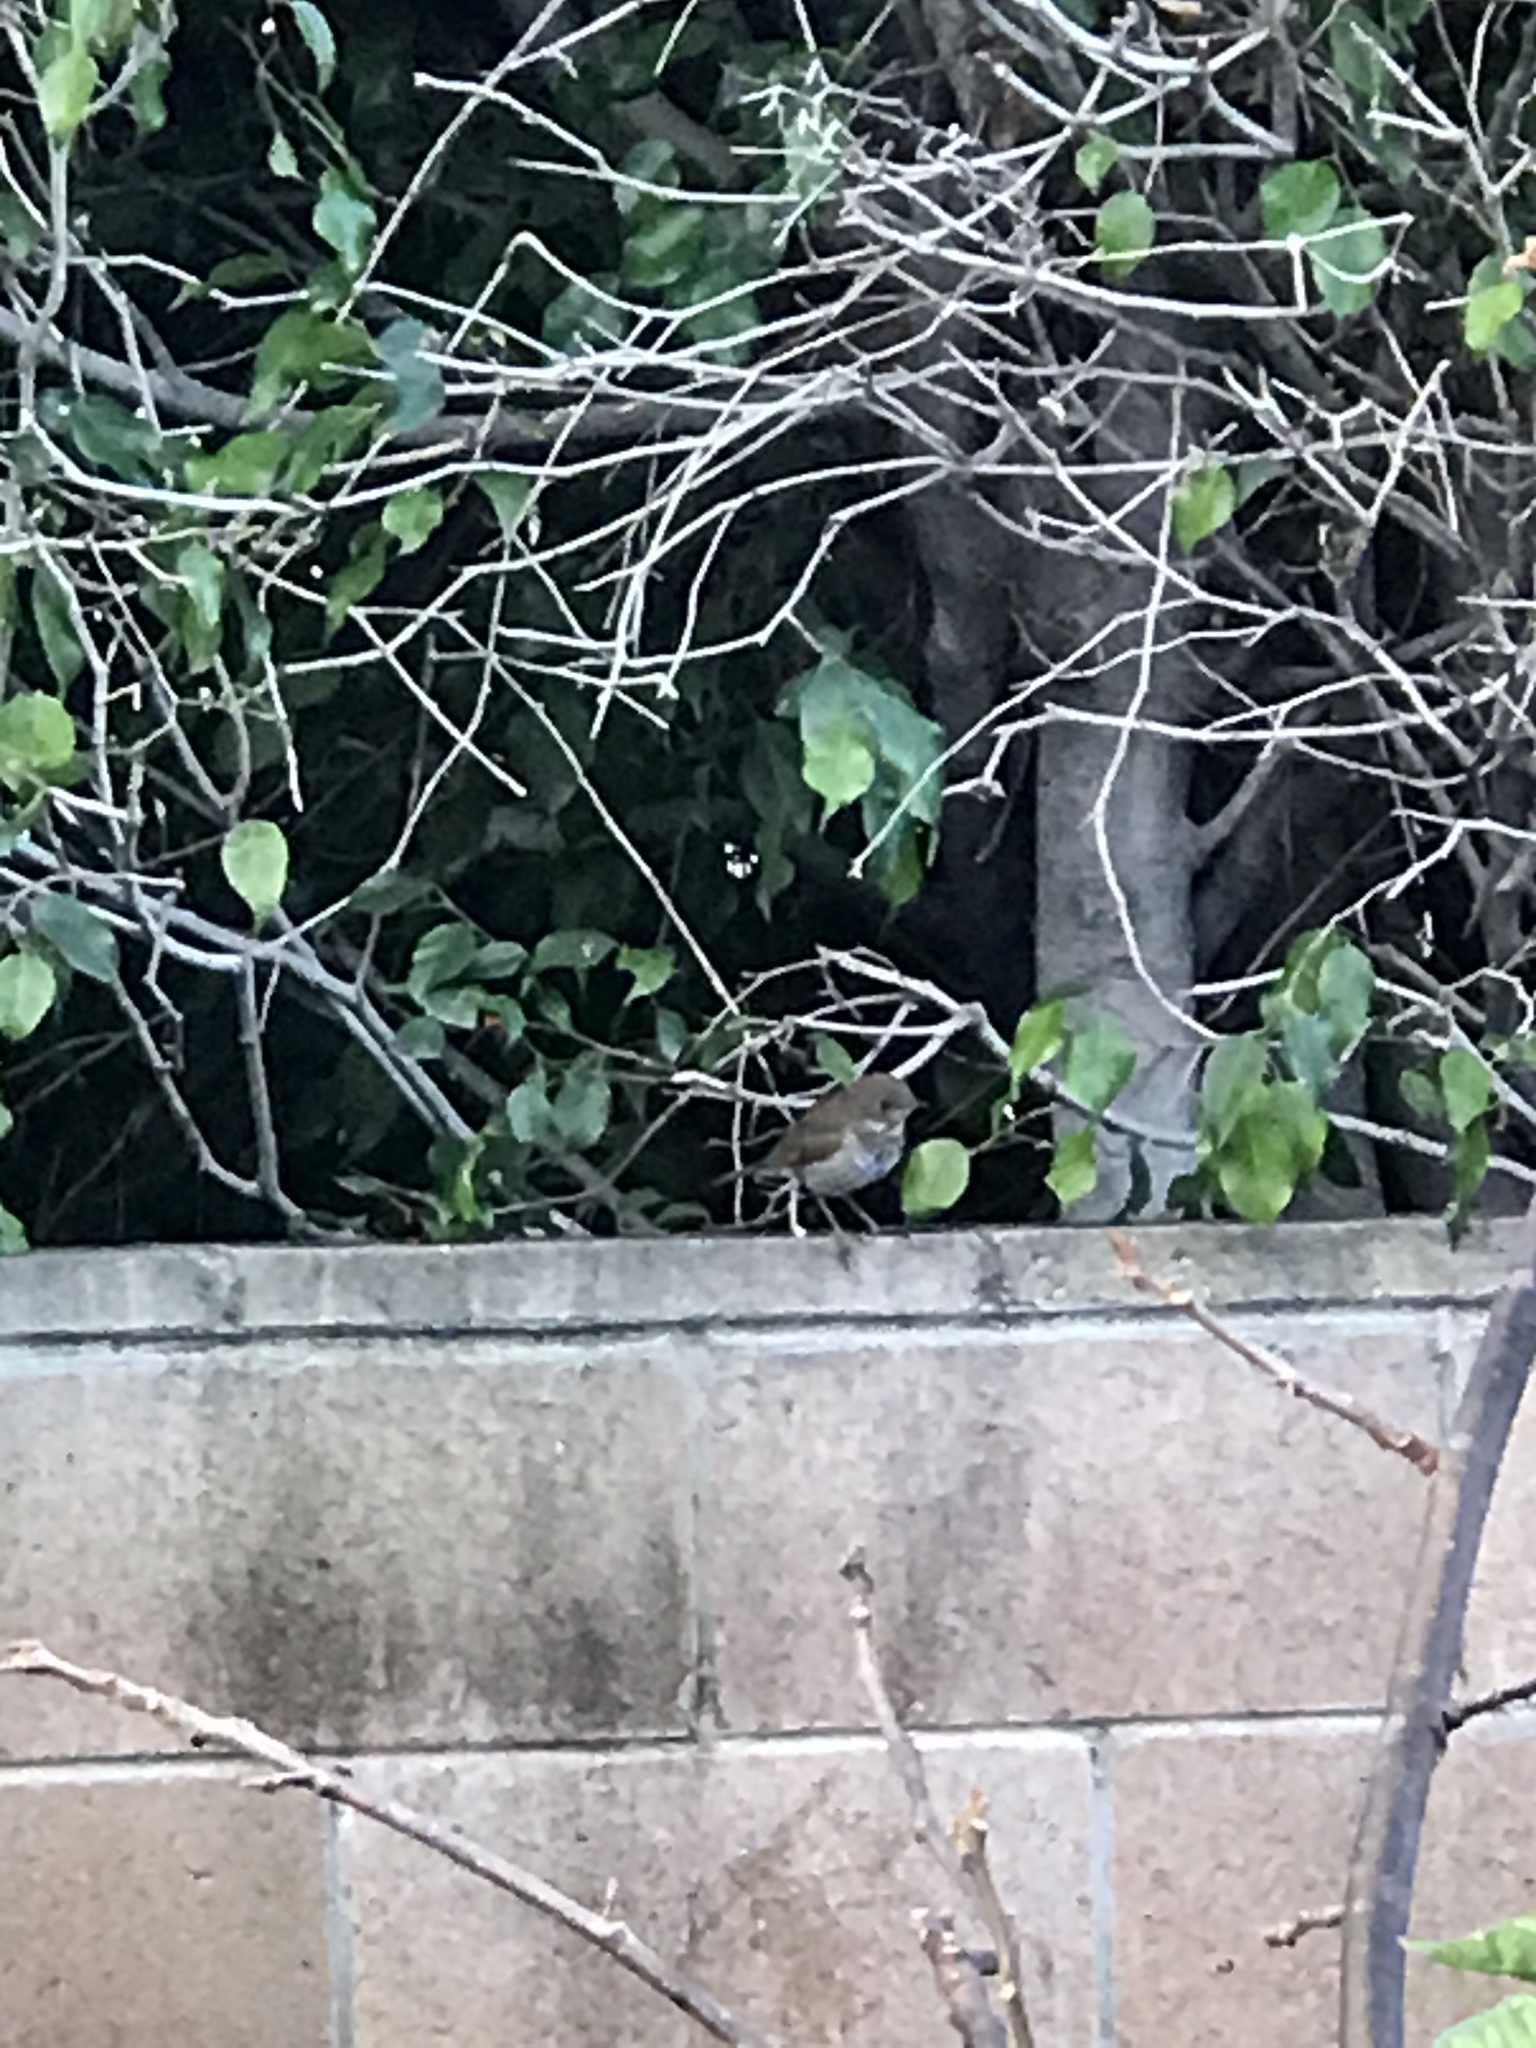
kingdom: Animalia
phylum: Chordata
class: Aves
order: Passeriformes
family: Turdidae
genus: Catharus
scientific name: Catharus guttatus
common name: Hermit thrush
